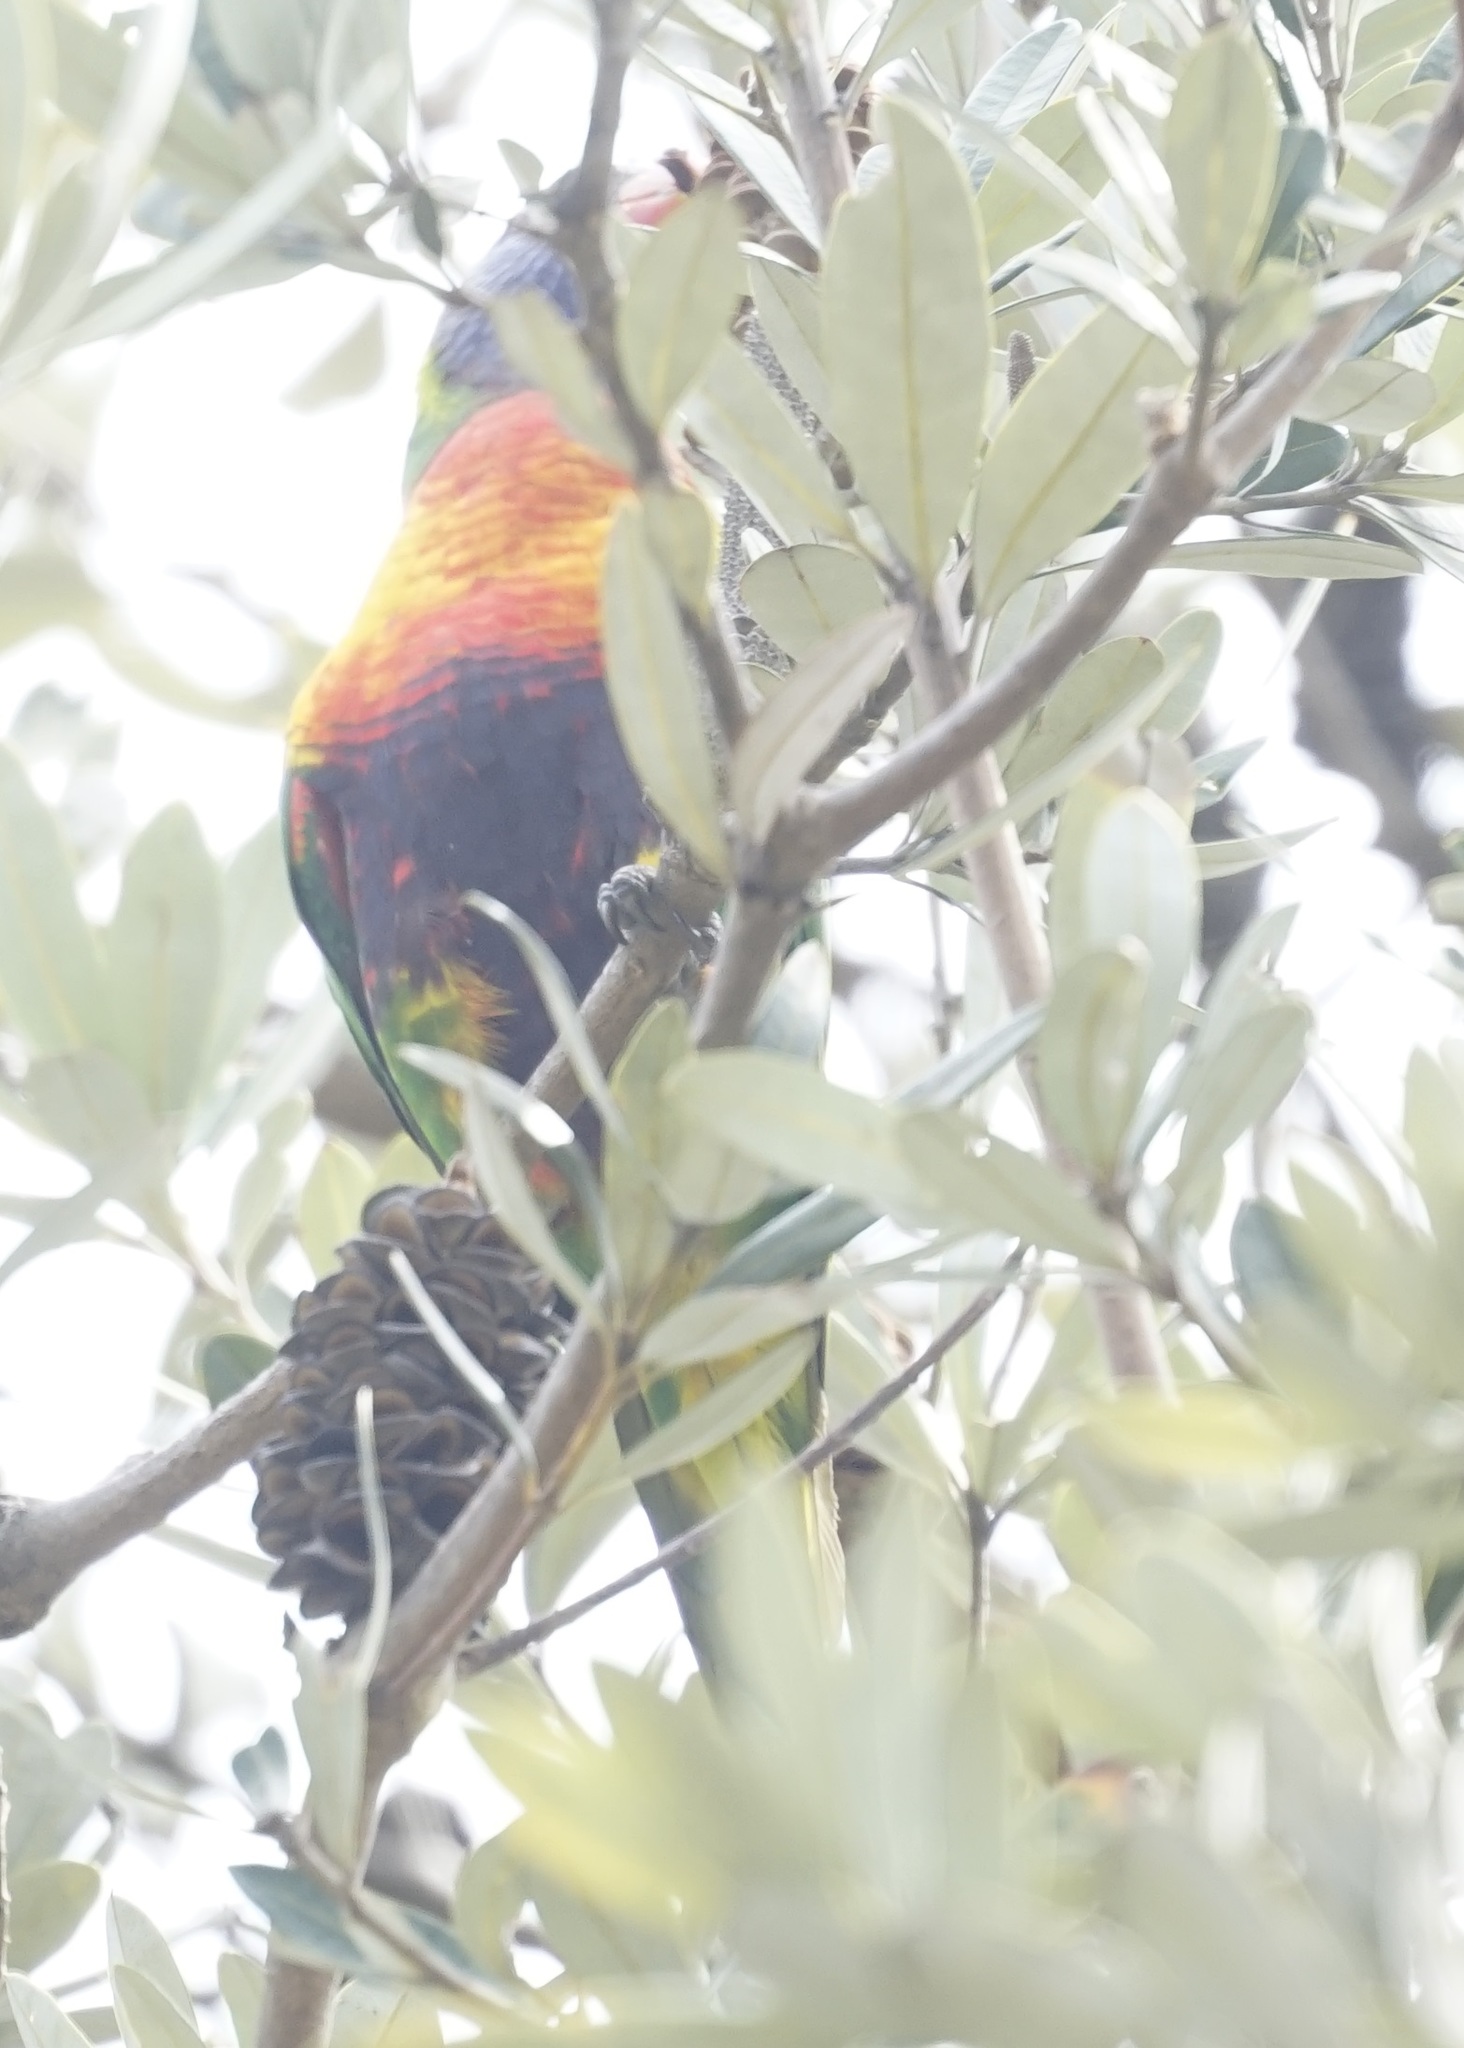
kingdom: Animalia
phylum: Chordata
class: Aves
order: Psittaciformes
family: Psittacidae
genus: Trichoglossus
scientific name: Trichoglossus haematodus
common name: Coconut lorikeet
